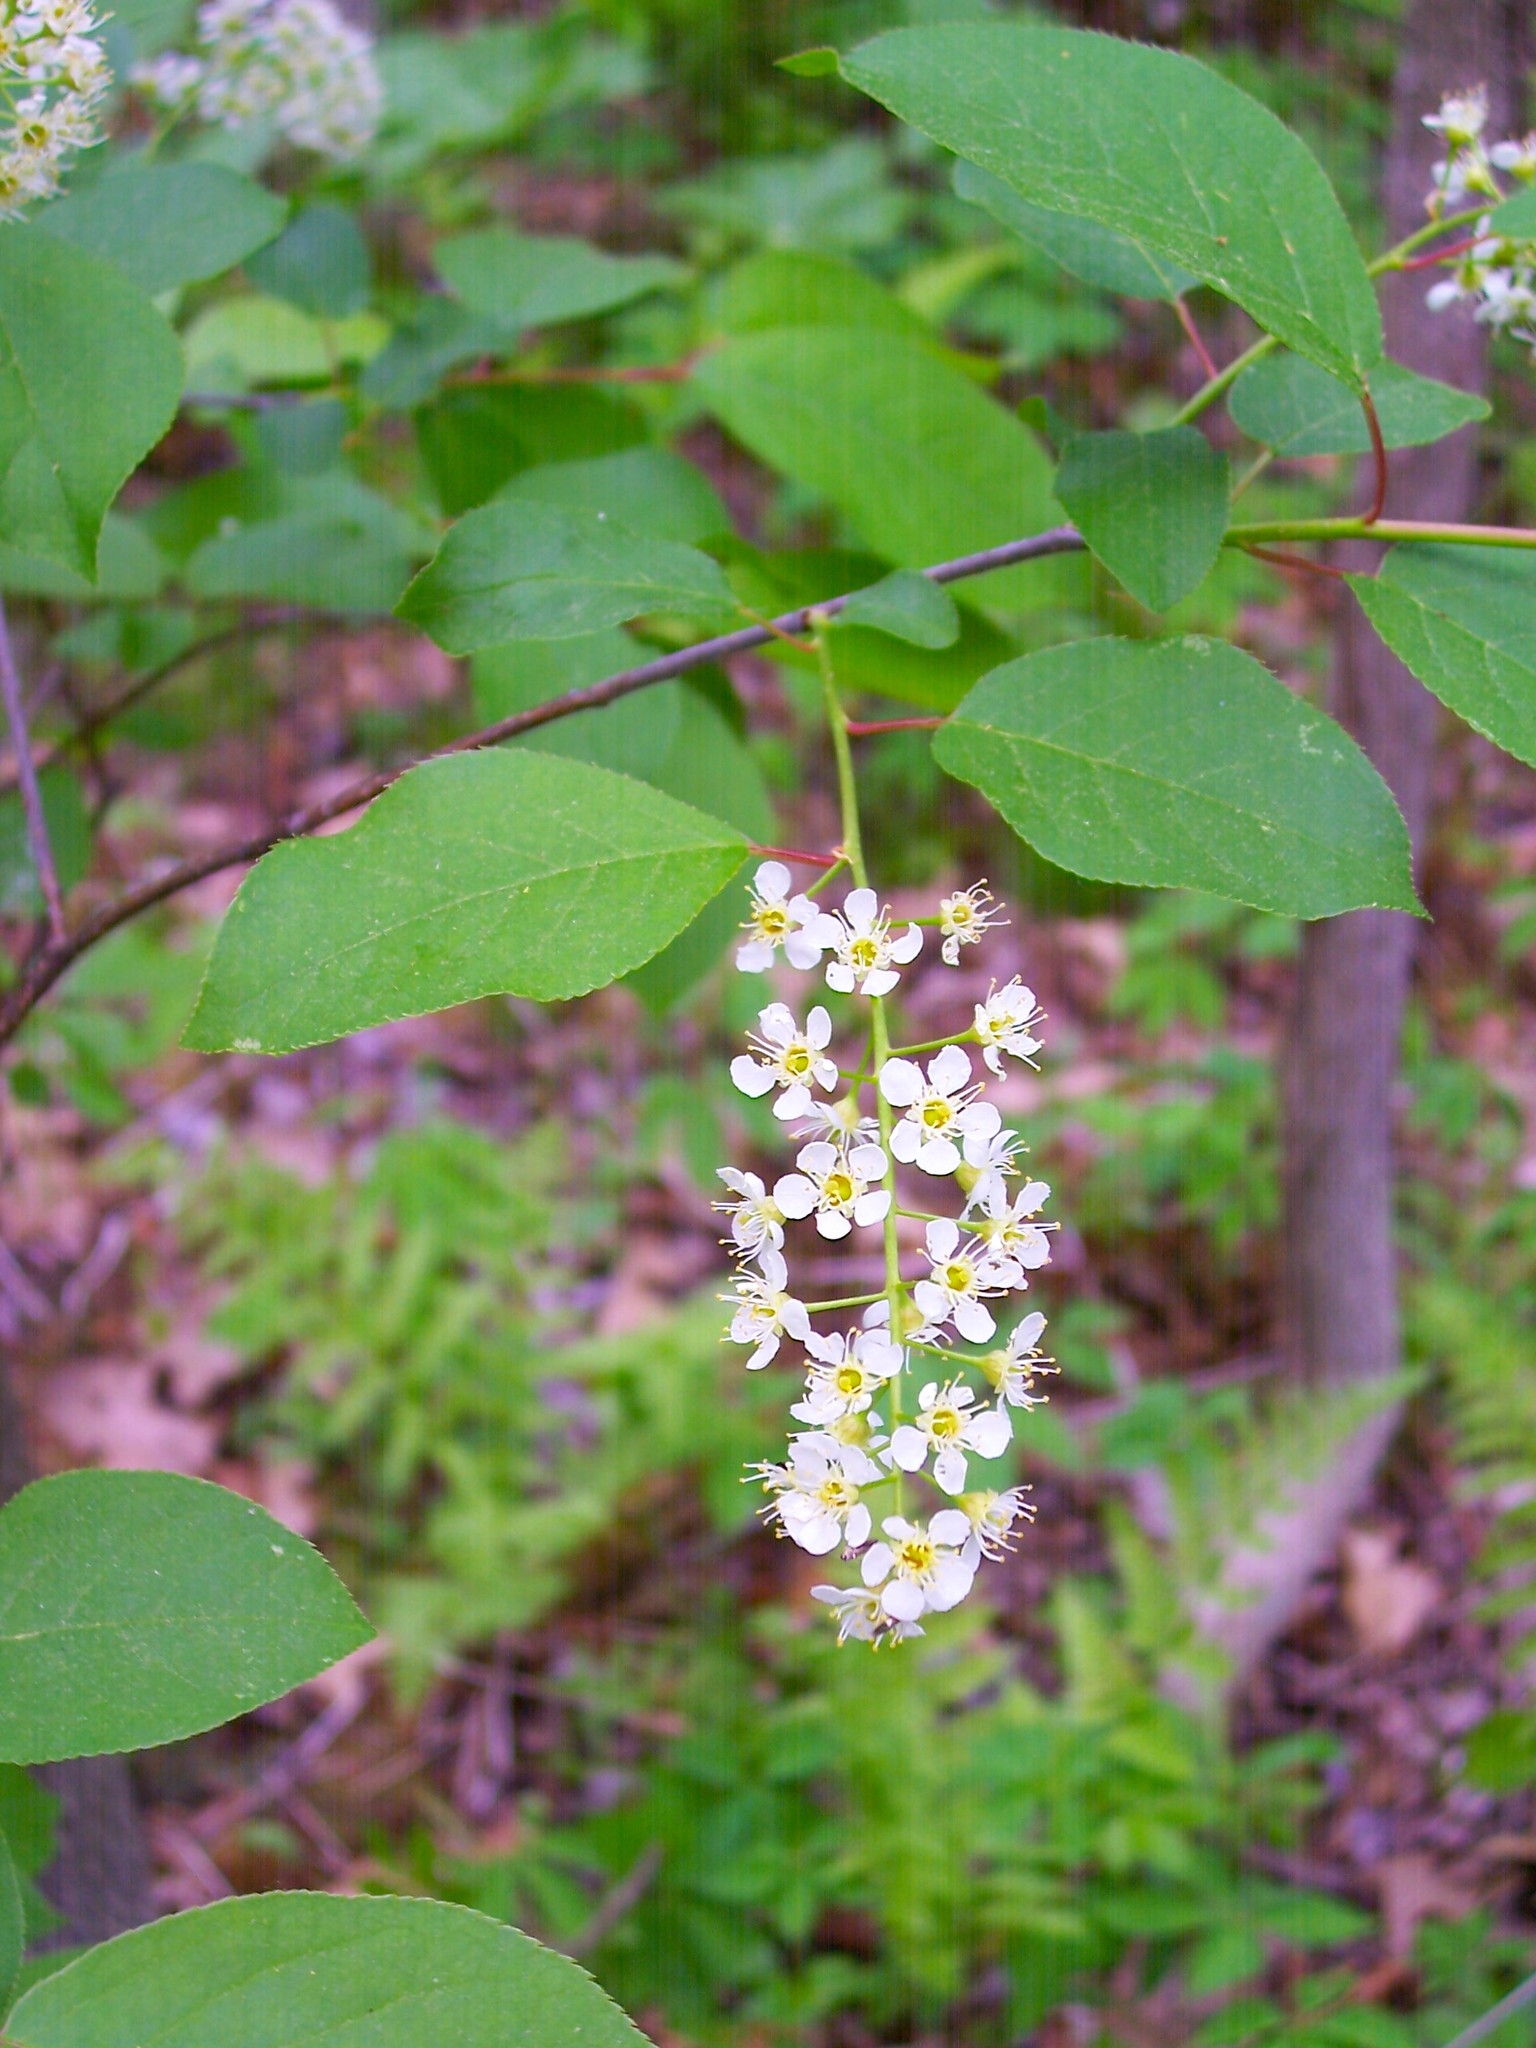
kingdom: Plantae
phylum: Tracheophyta
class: Magnoliopsida
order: Rosales
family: Rosaceae
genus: Prunus
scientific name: Prunus virginiana
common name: Chokecherry
